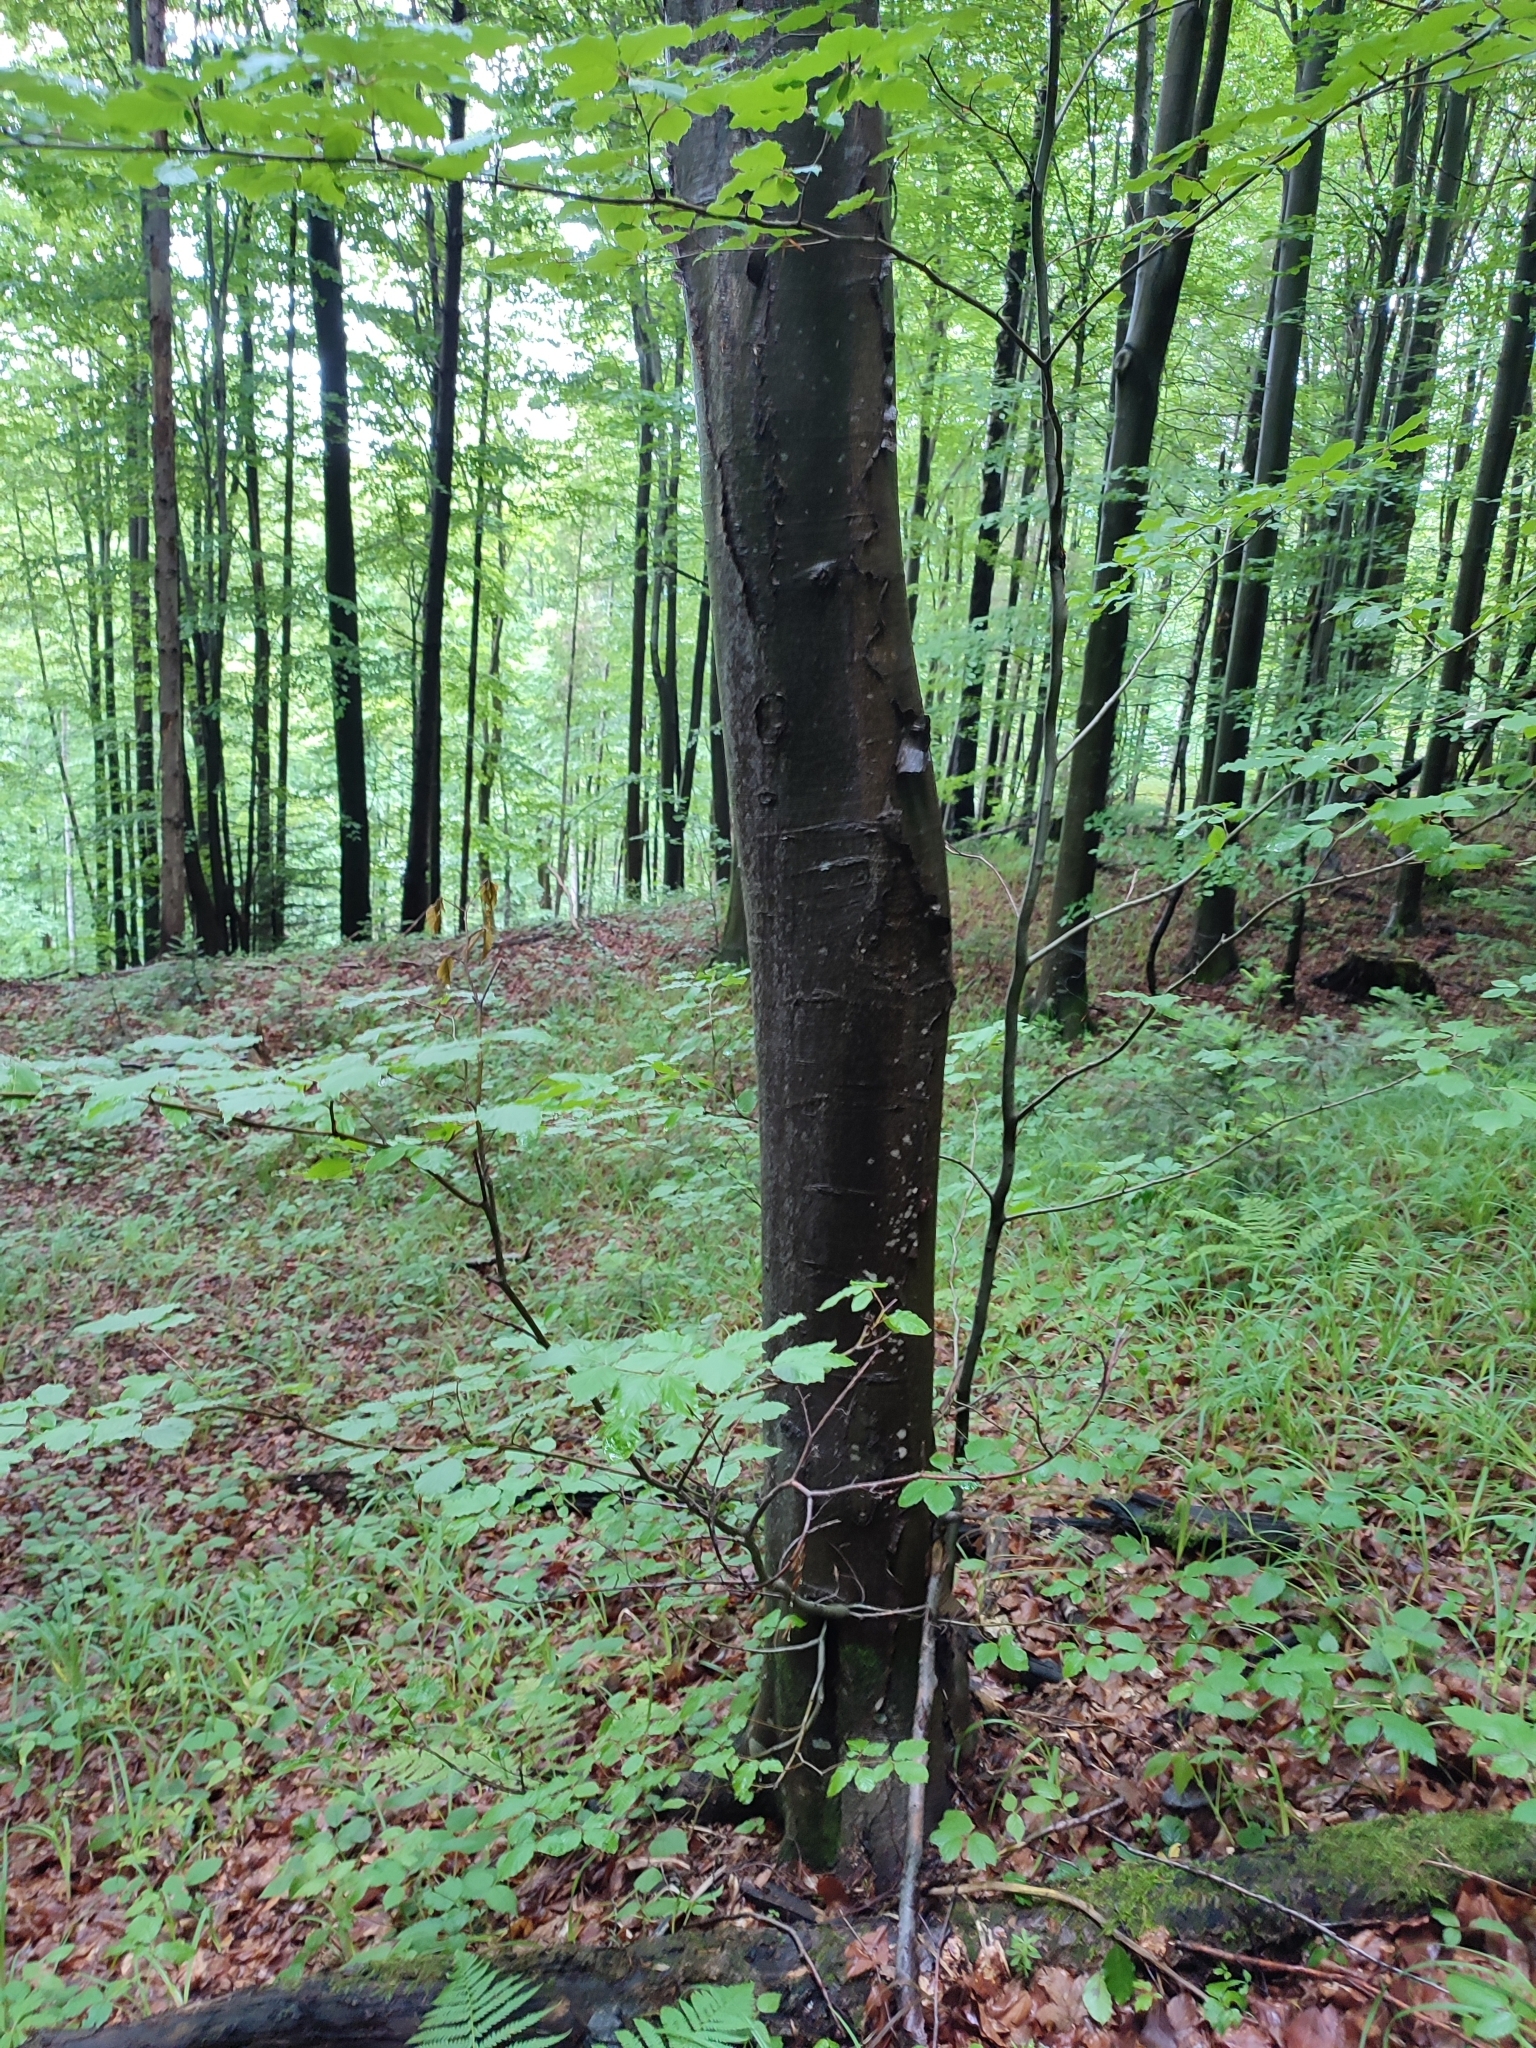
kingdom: Plantae
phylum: Tracheophyta
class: Magnoliopsida
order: Fagales
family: Fagaceae
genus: Fagus
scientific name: Fagus sylvatica
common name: Beech
